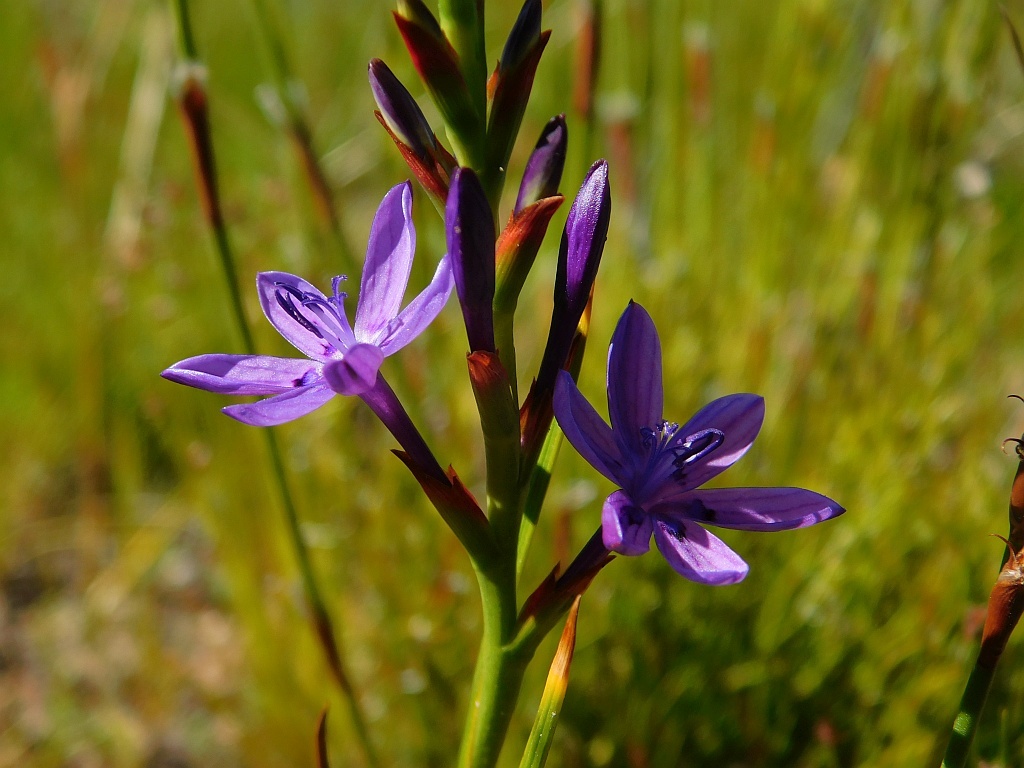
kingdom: Plantae
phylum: Tracheophyta
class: Liliopsida
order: Asparagales
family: Iridaceae
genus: Thereianthus
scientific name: Thereianthus bracteolatus
